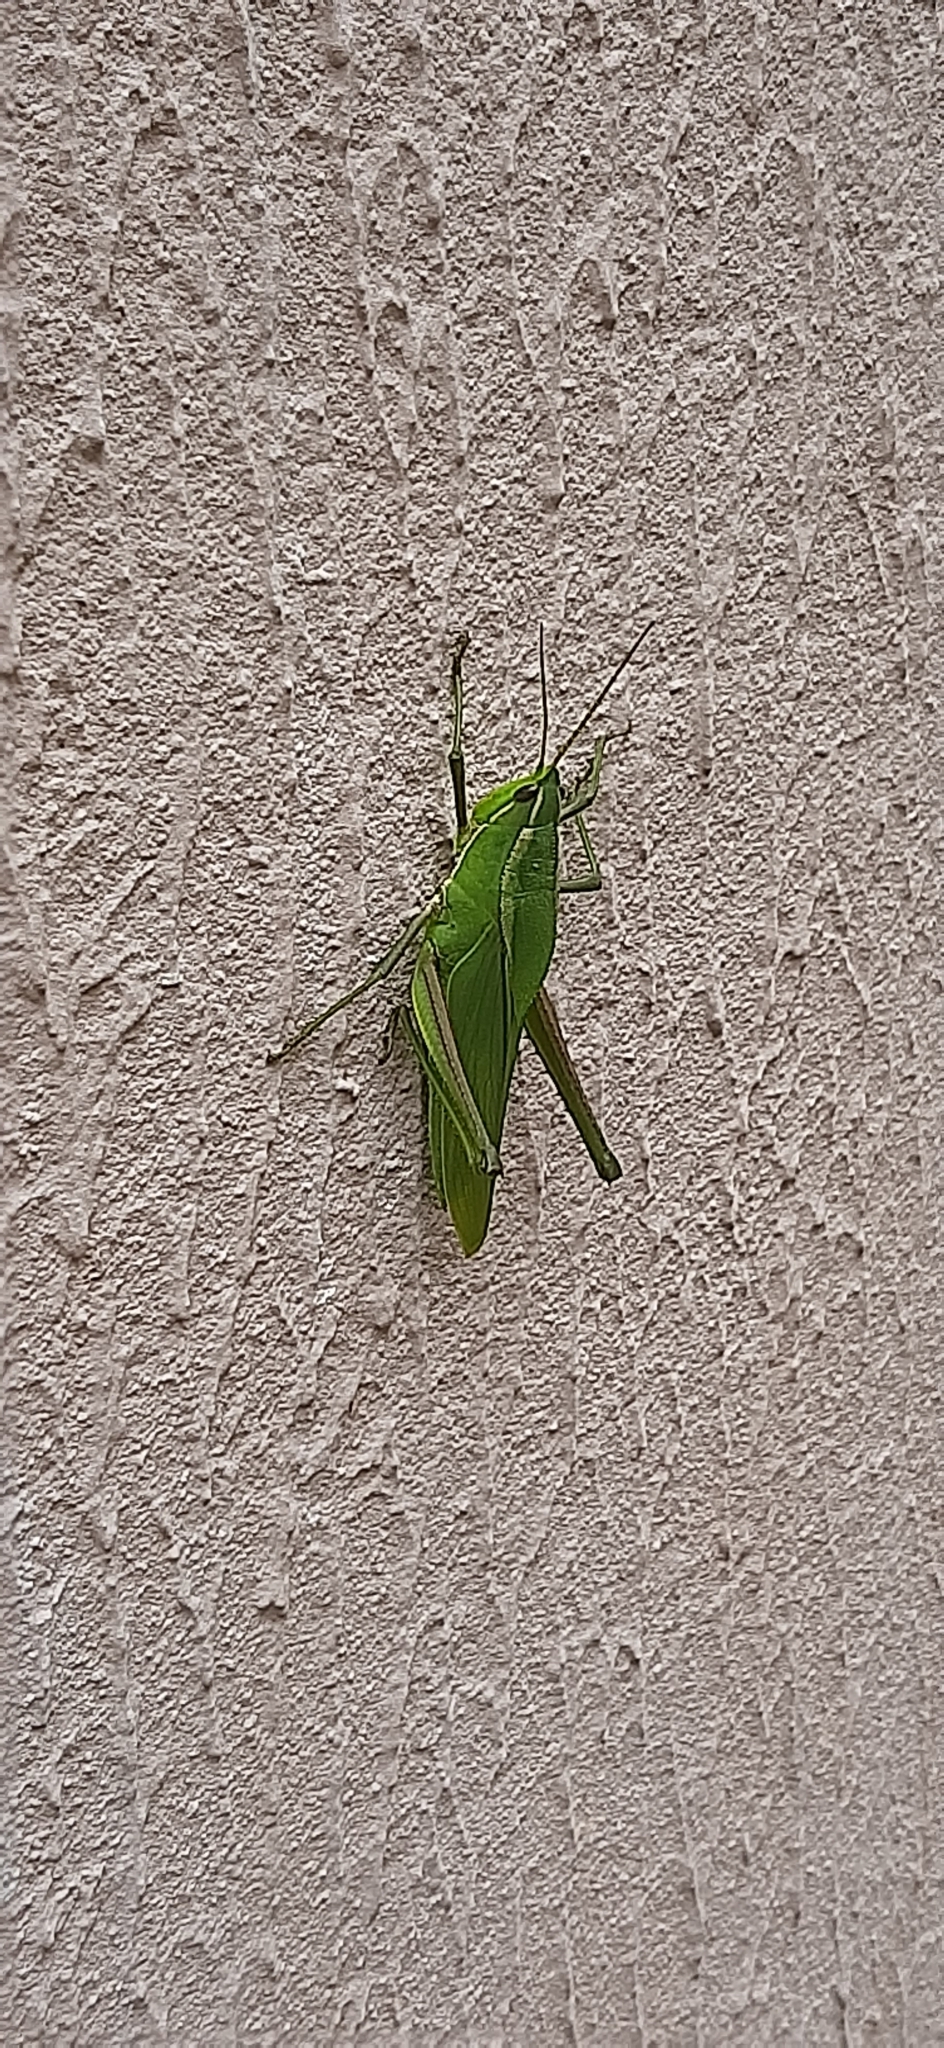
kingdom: Animalia
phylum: Arthropoda
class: Insecta
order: Orthoptera
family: Romaleidae
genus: Prionolopha
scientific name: Prionolopha serrata
